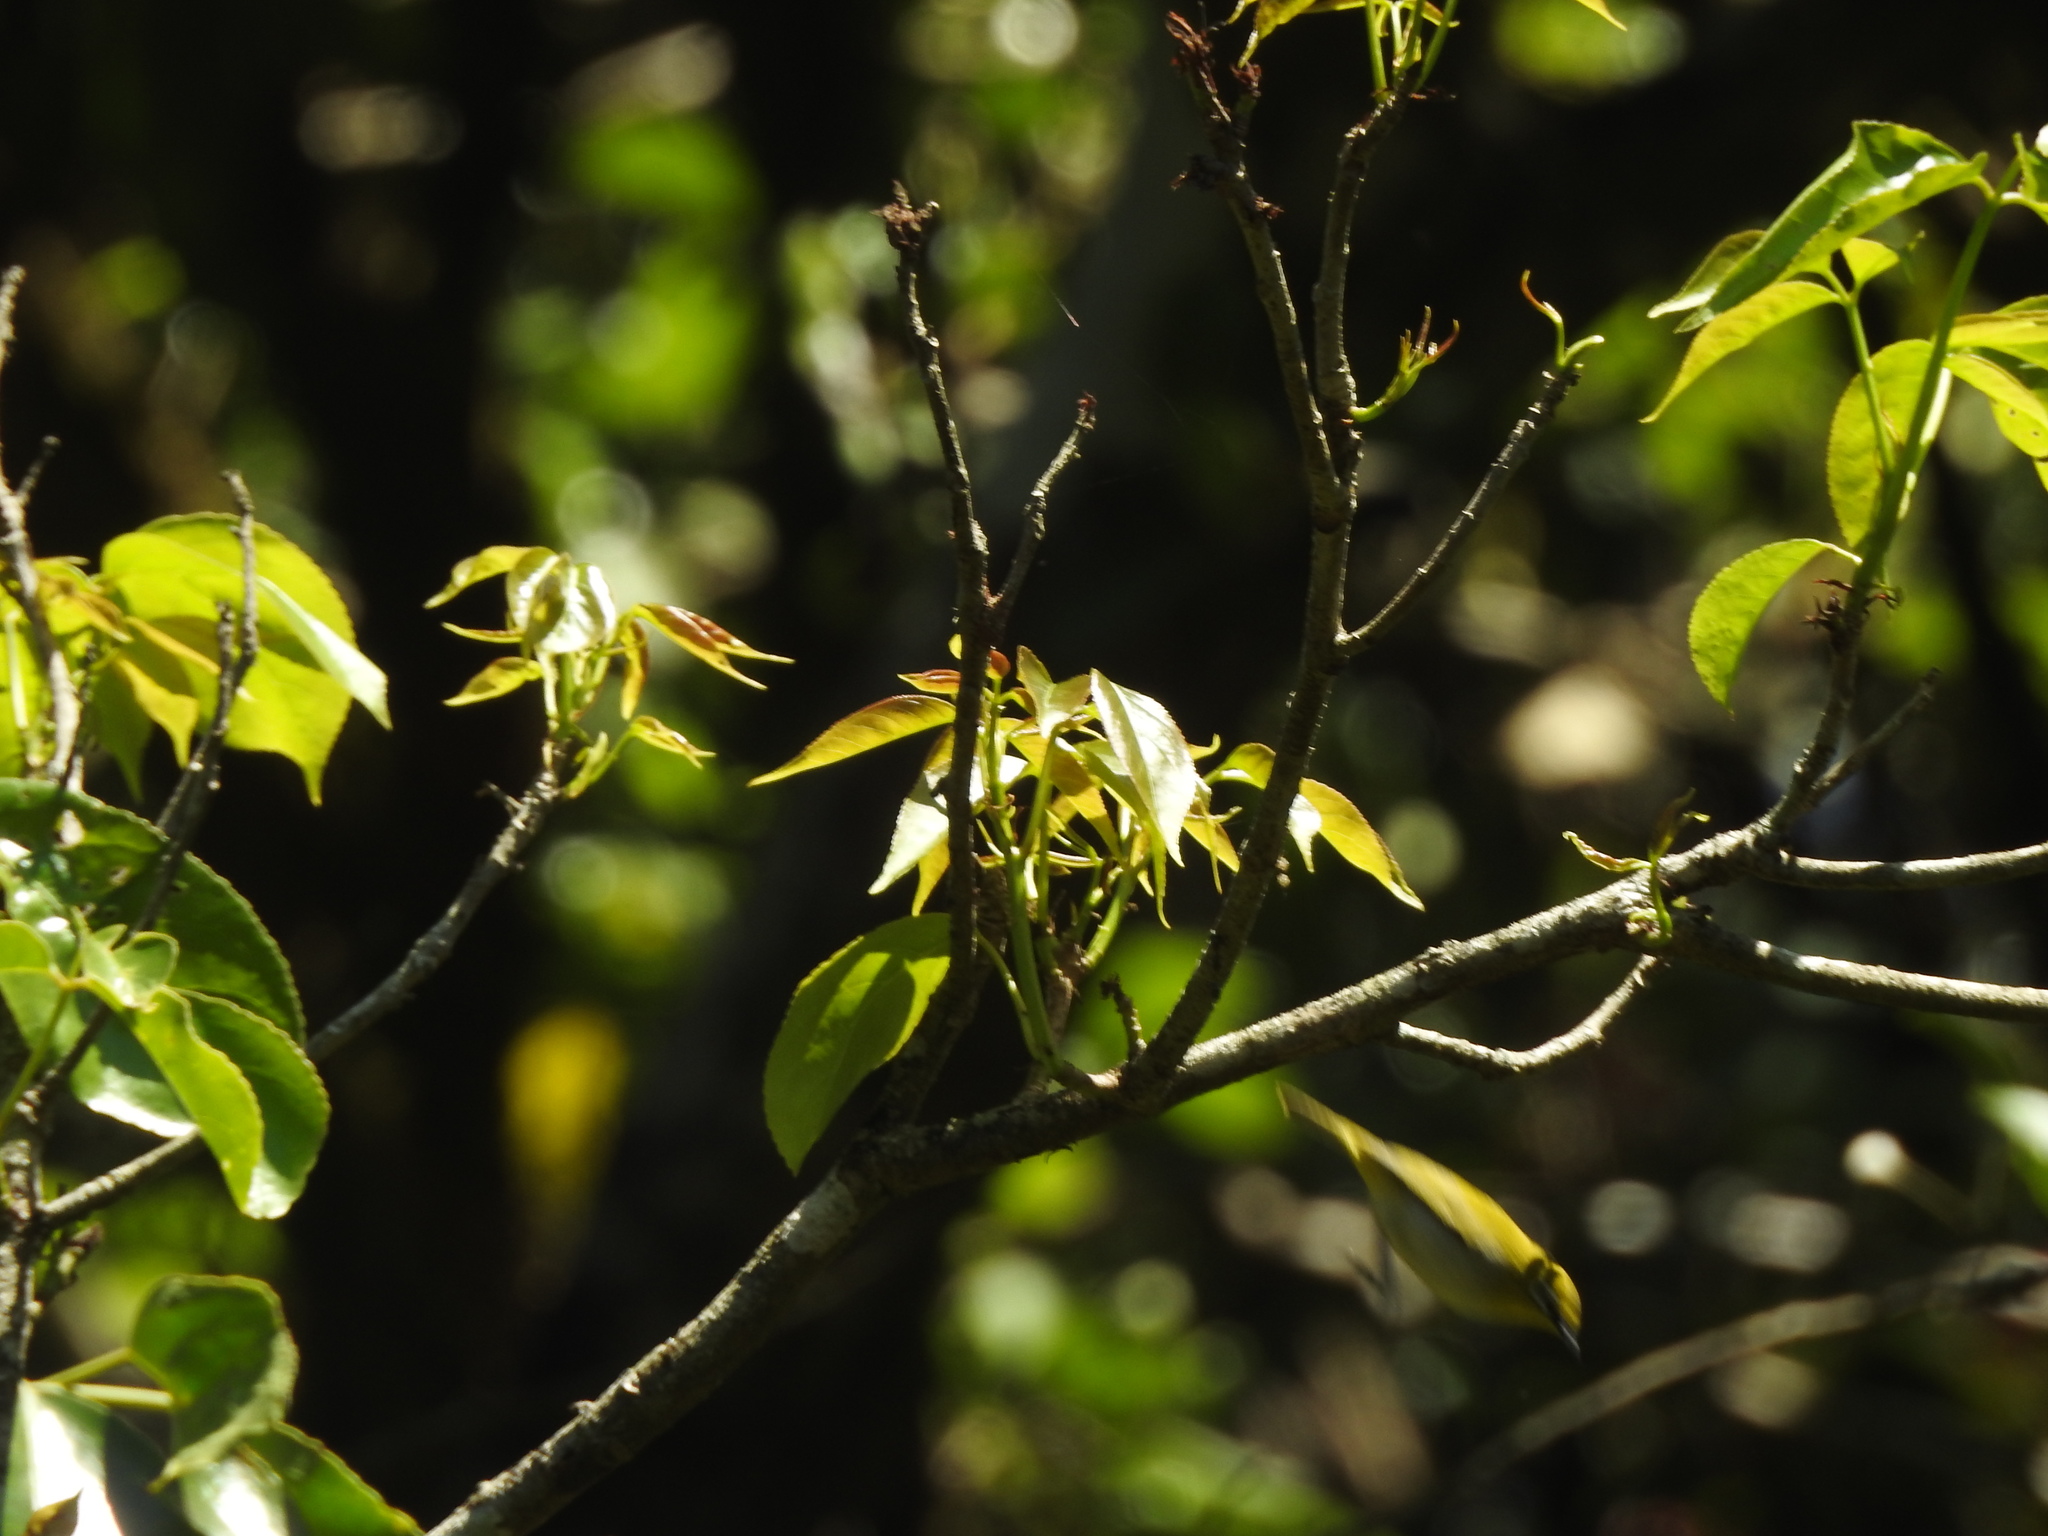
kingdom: Animalia
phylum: Chordata
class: Aves
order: Passeriformes
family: Zosteropidae
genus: Zosterops
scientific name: Zosterops palpebrosus
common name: Oriental white-eye
